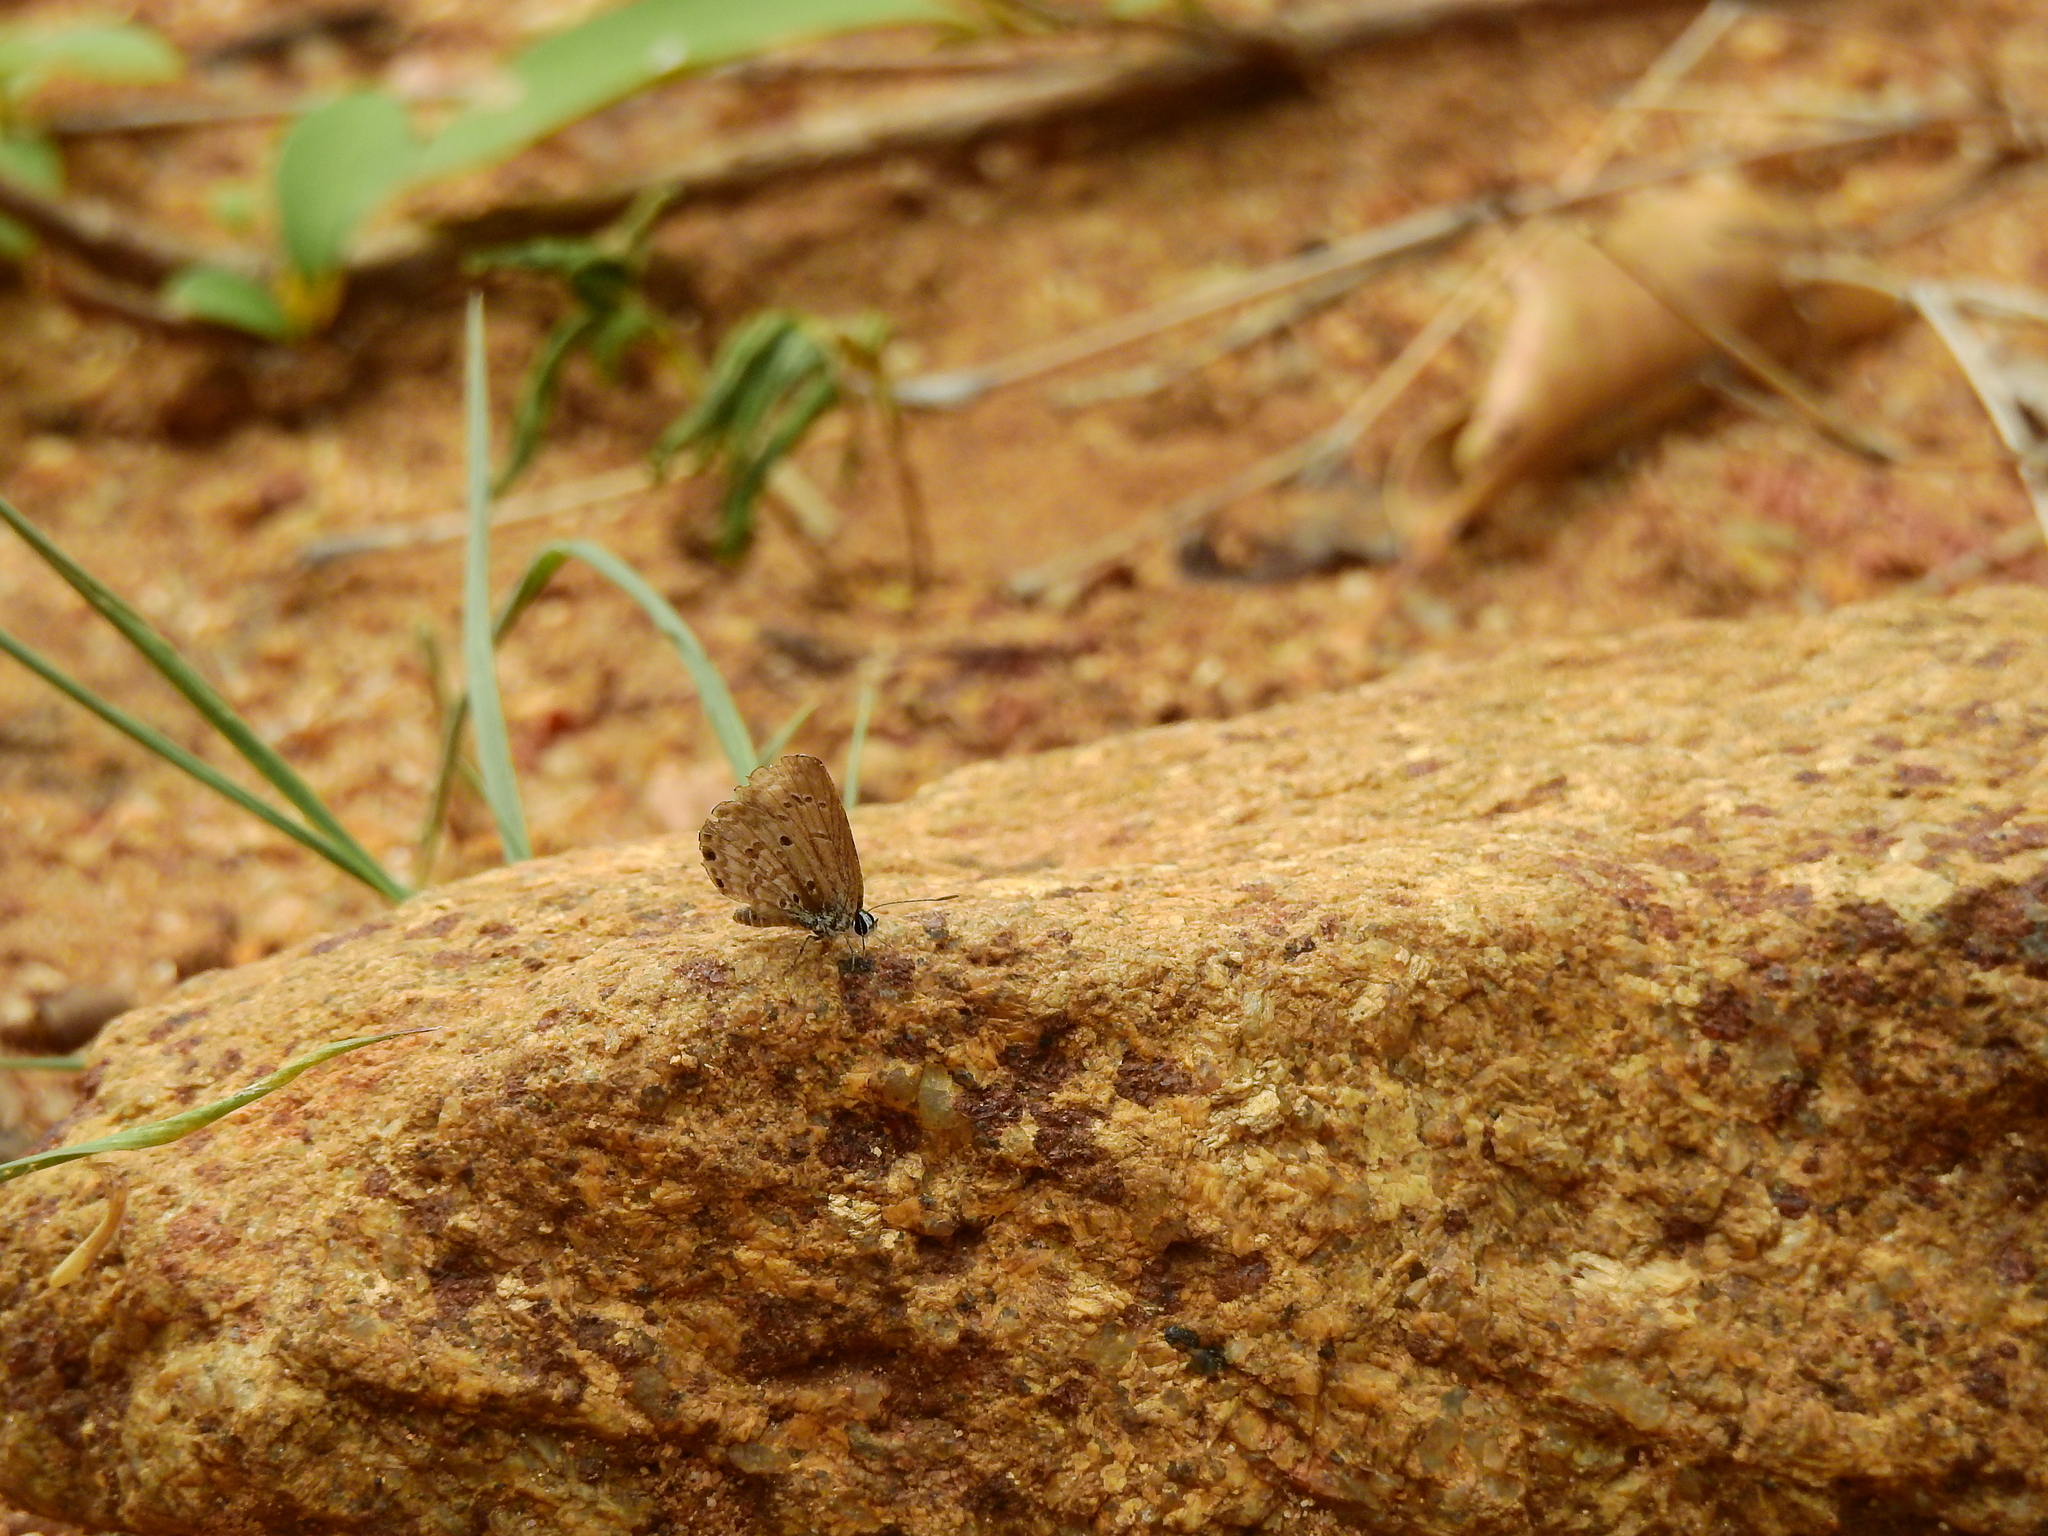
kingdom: Animalia
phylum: Arthropoda
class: Insecta
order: Lepidoptera
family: Lycaenidae
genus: Chilades
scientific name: Chilades laius
